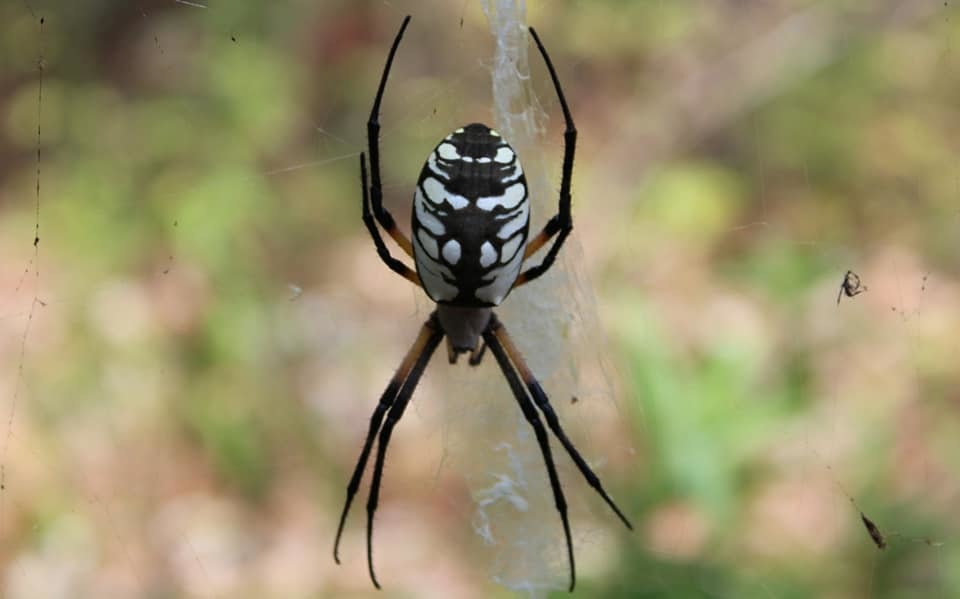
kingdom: Animalia
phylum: Arthropoda
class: Arachnida
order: Araneae
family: Araneidae
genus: Argiope
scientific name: Argiope aurantia
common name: Orb weavers
